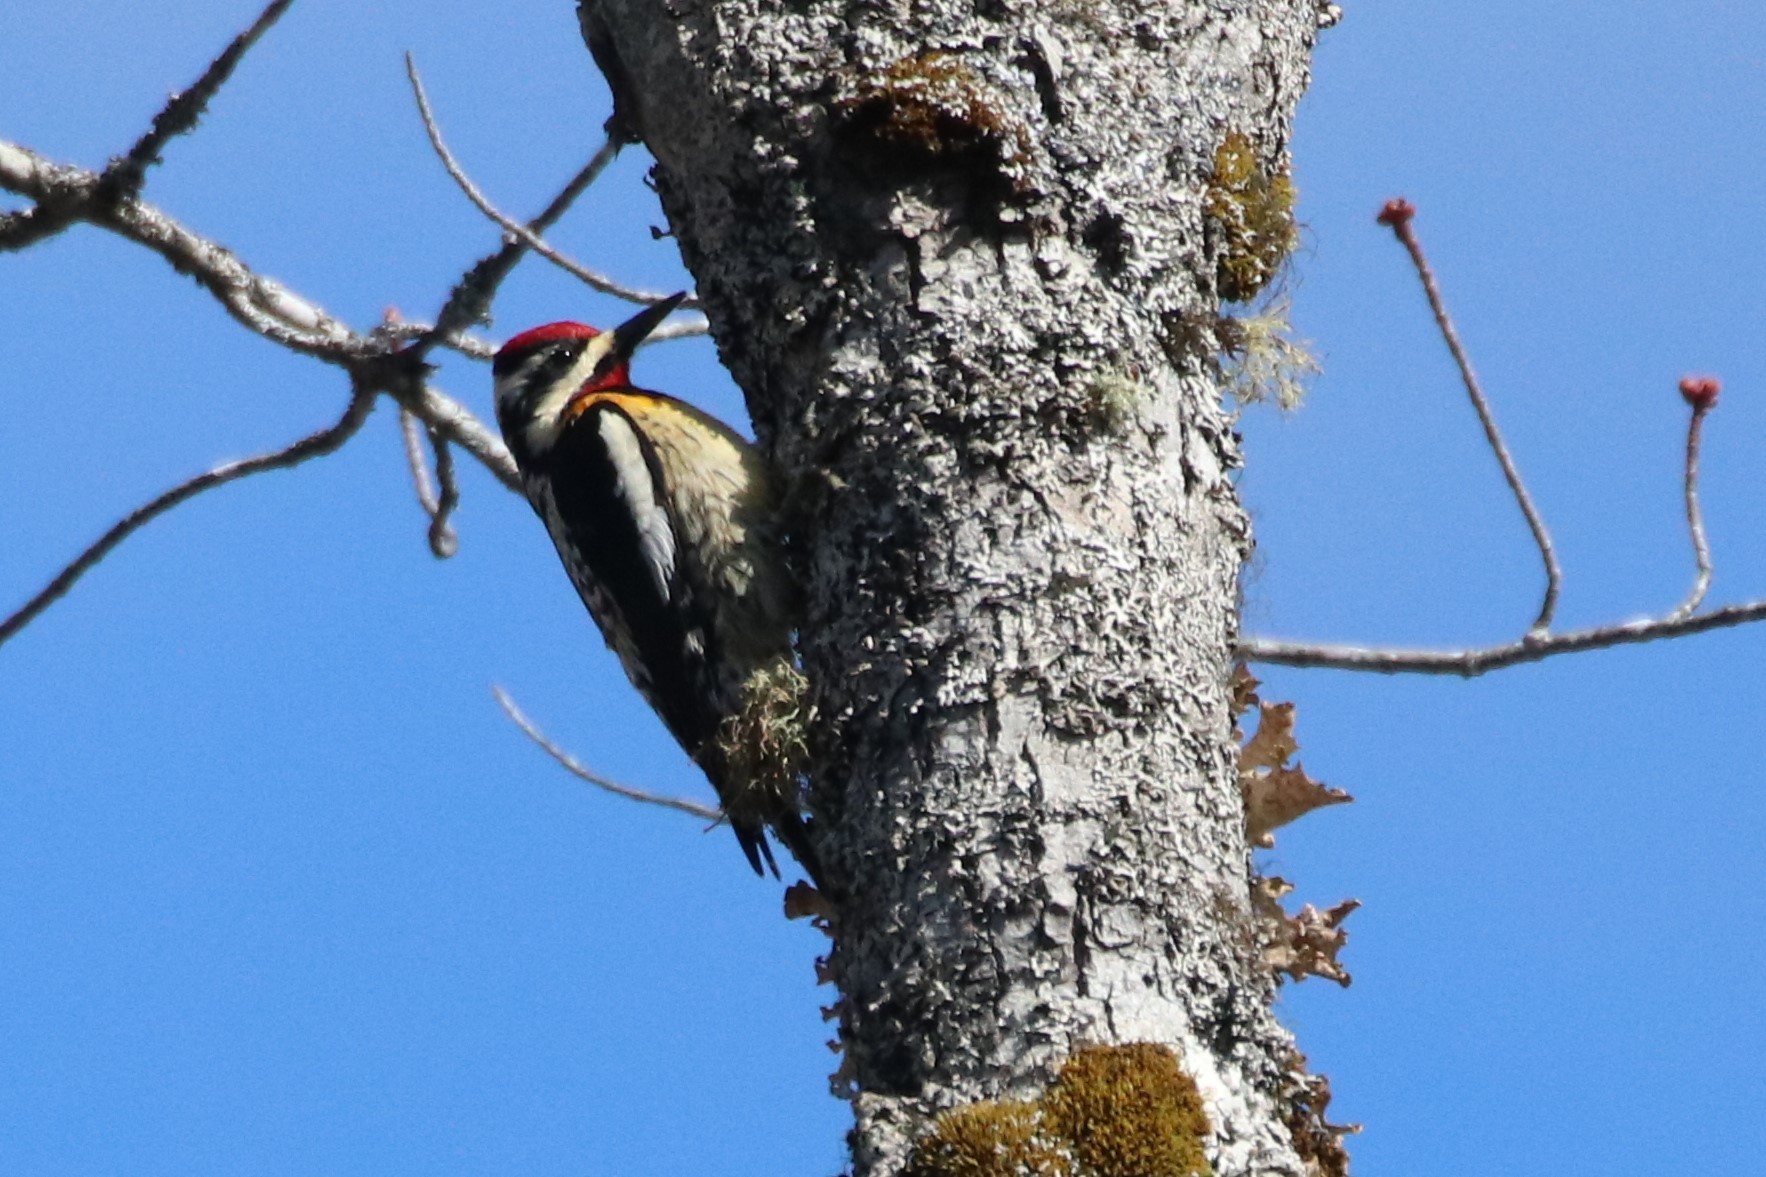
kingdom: Animalia
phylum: Chordata
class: Aves
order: Piciformes
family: Picidae
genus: Sphyrapicus
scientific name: Sphyrapicus varius
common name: Yellow-bellied sapsucker
